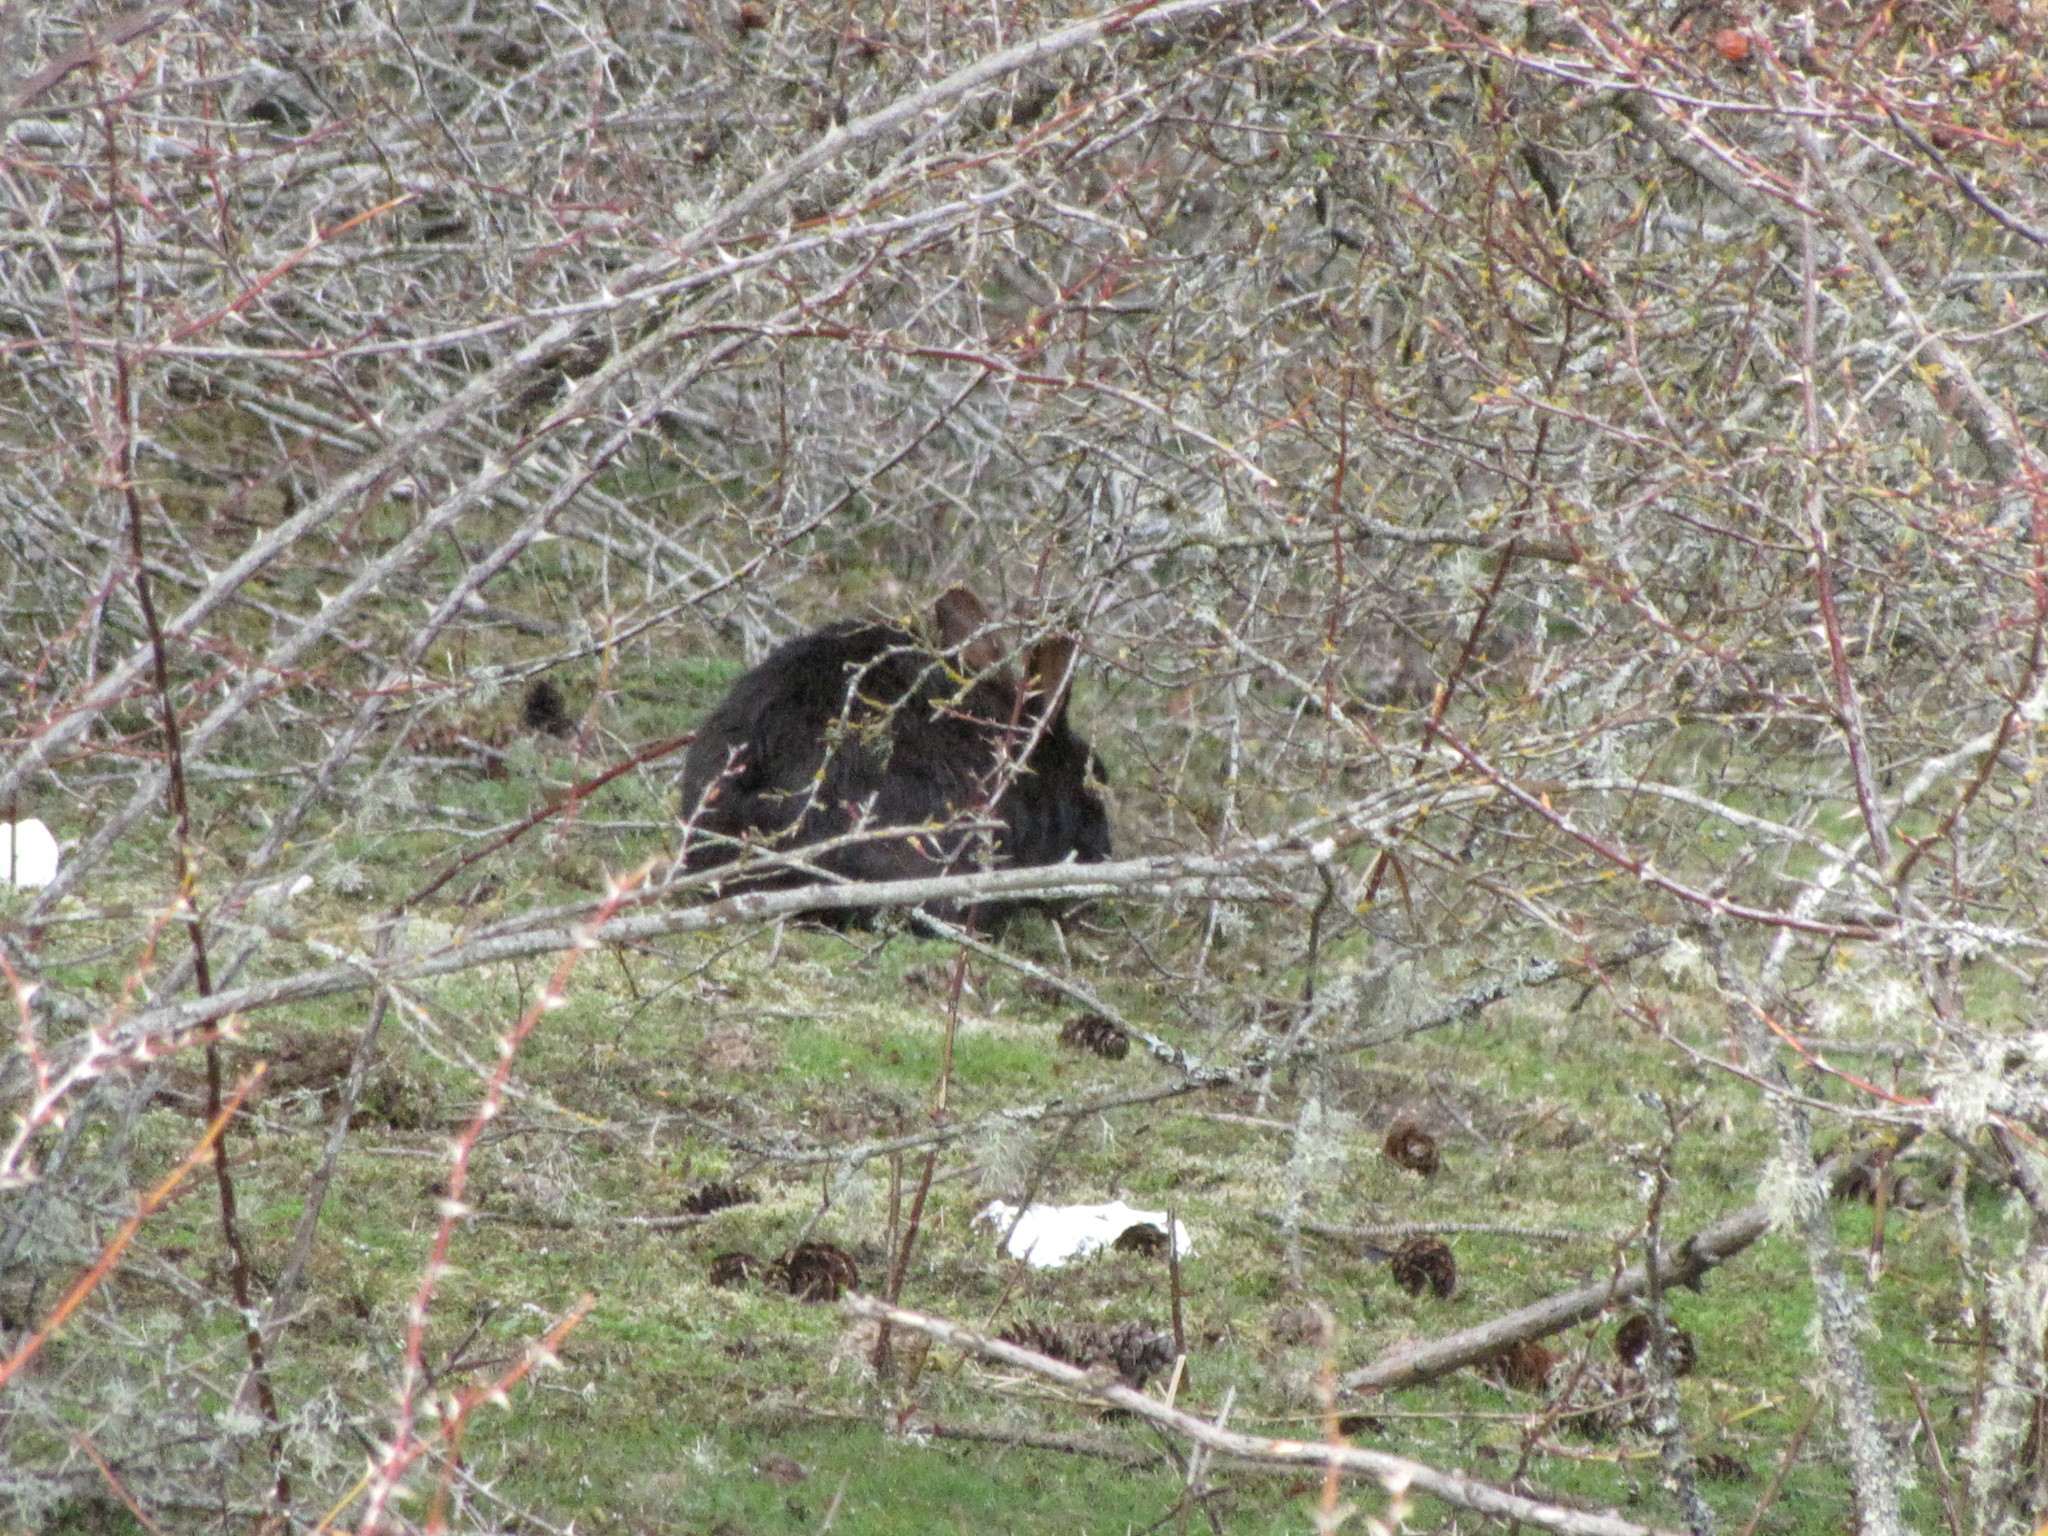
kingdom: Animalia
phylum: Chordata
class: Mammalia
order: Lagomorpha
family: Leporidae
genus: Oryctolagus
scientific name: Oryctolagus cuniculus
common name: European rabbit
